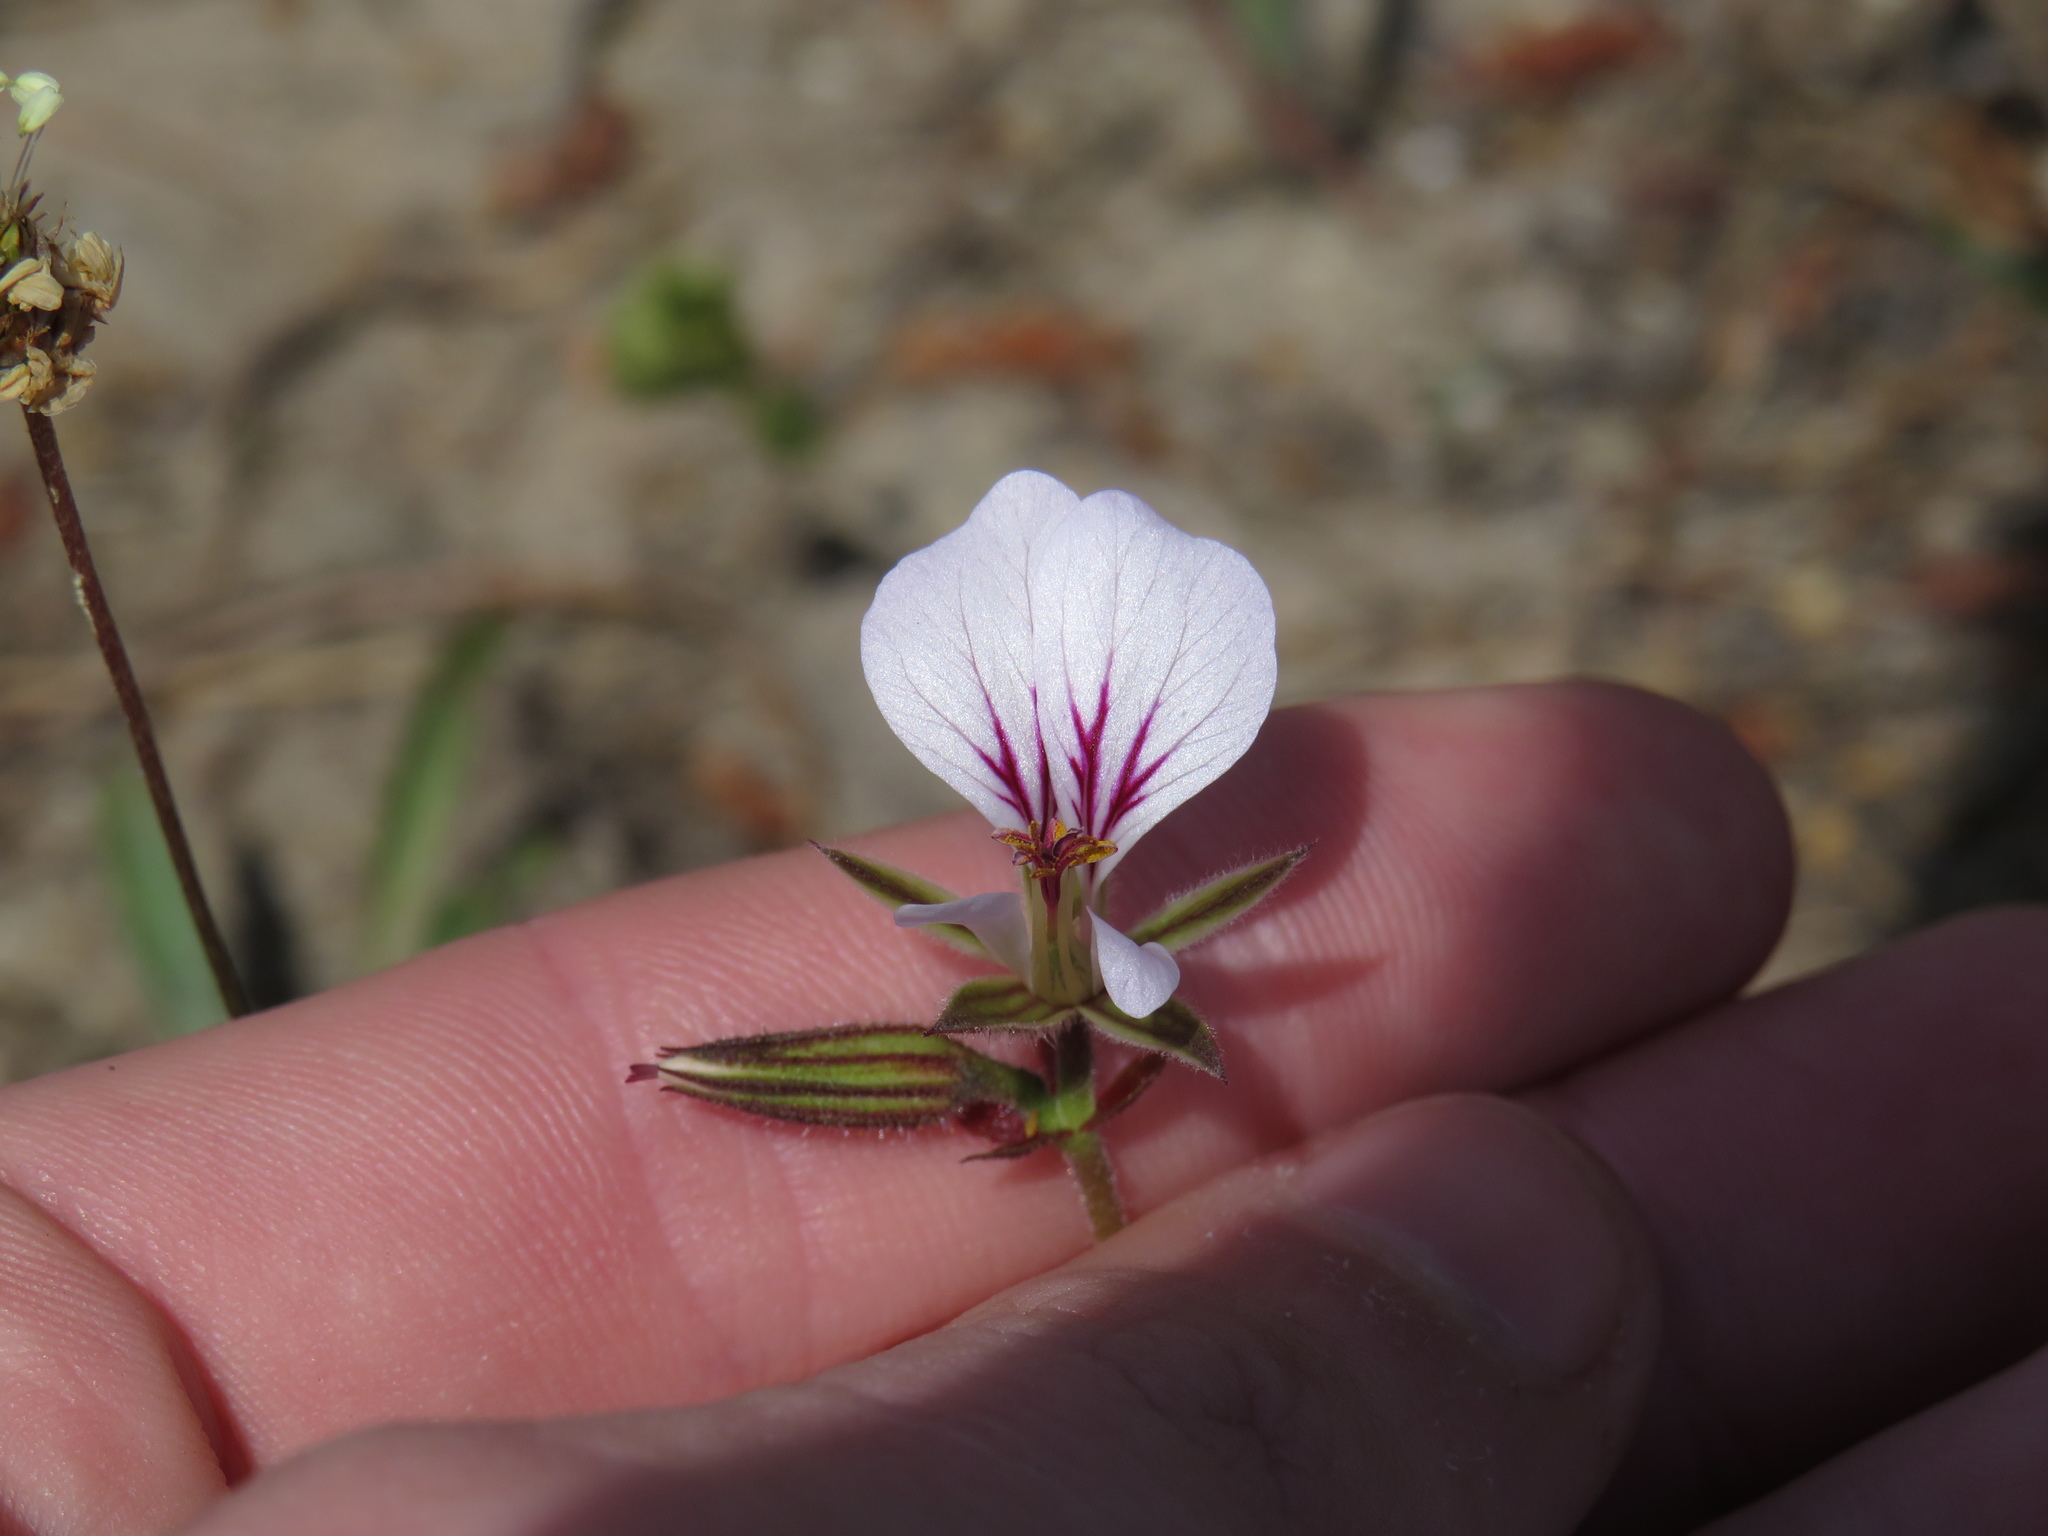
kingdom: Plantae
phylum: Tracheophyta
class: Magnoliopsida
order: Geraniales
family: Geraniaceae
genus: Pelargonium
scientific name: Pelargonium myrrhifolium
